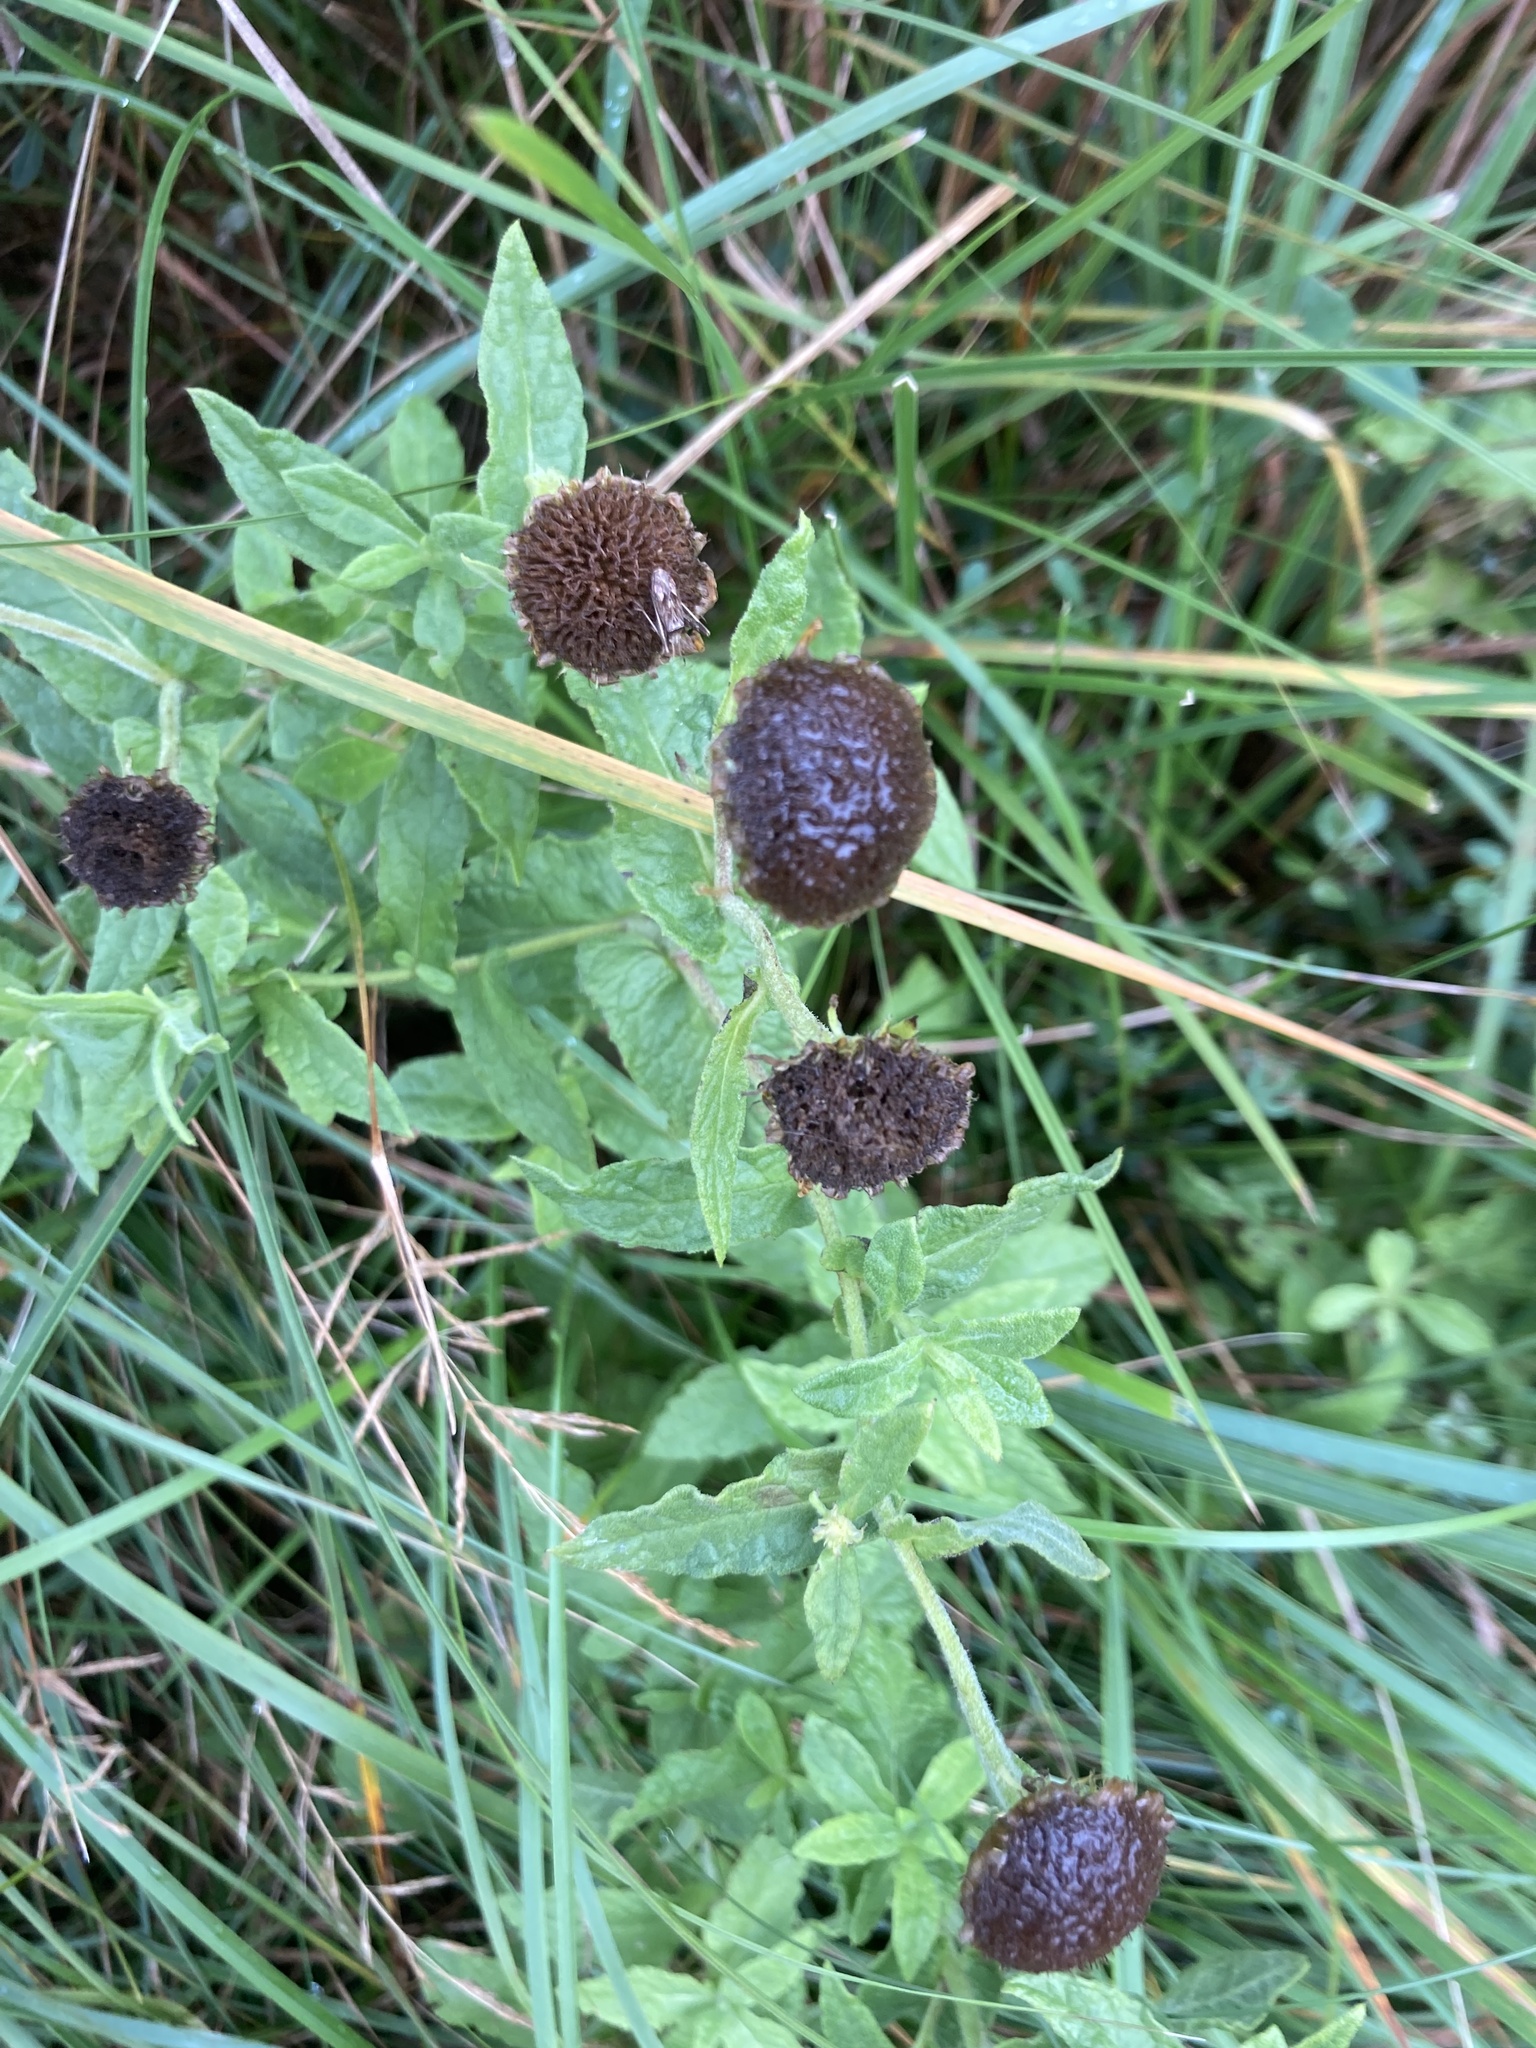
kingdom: Plantae
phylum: Tracheophyta
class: Magnoliopsida
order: Asterales
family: Asteraceae
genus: Pulicaria
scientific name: Pulicaria dysenterica
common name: Common fleabane
